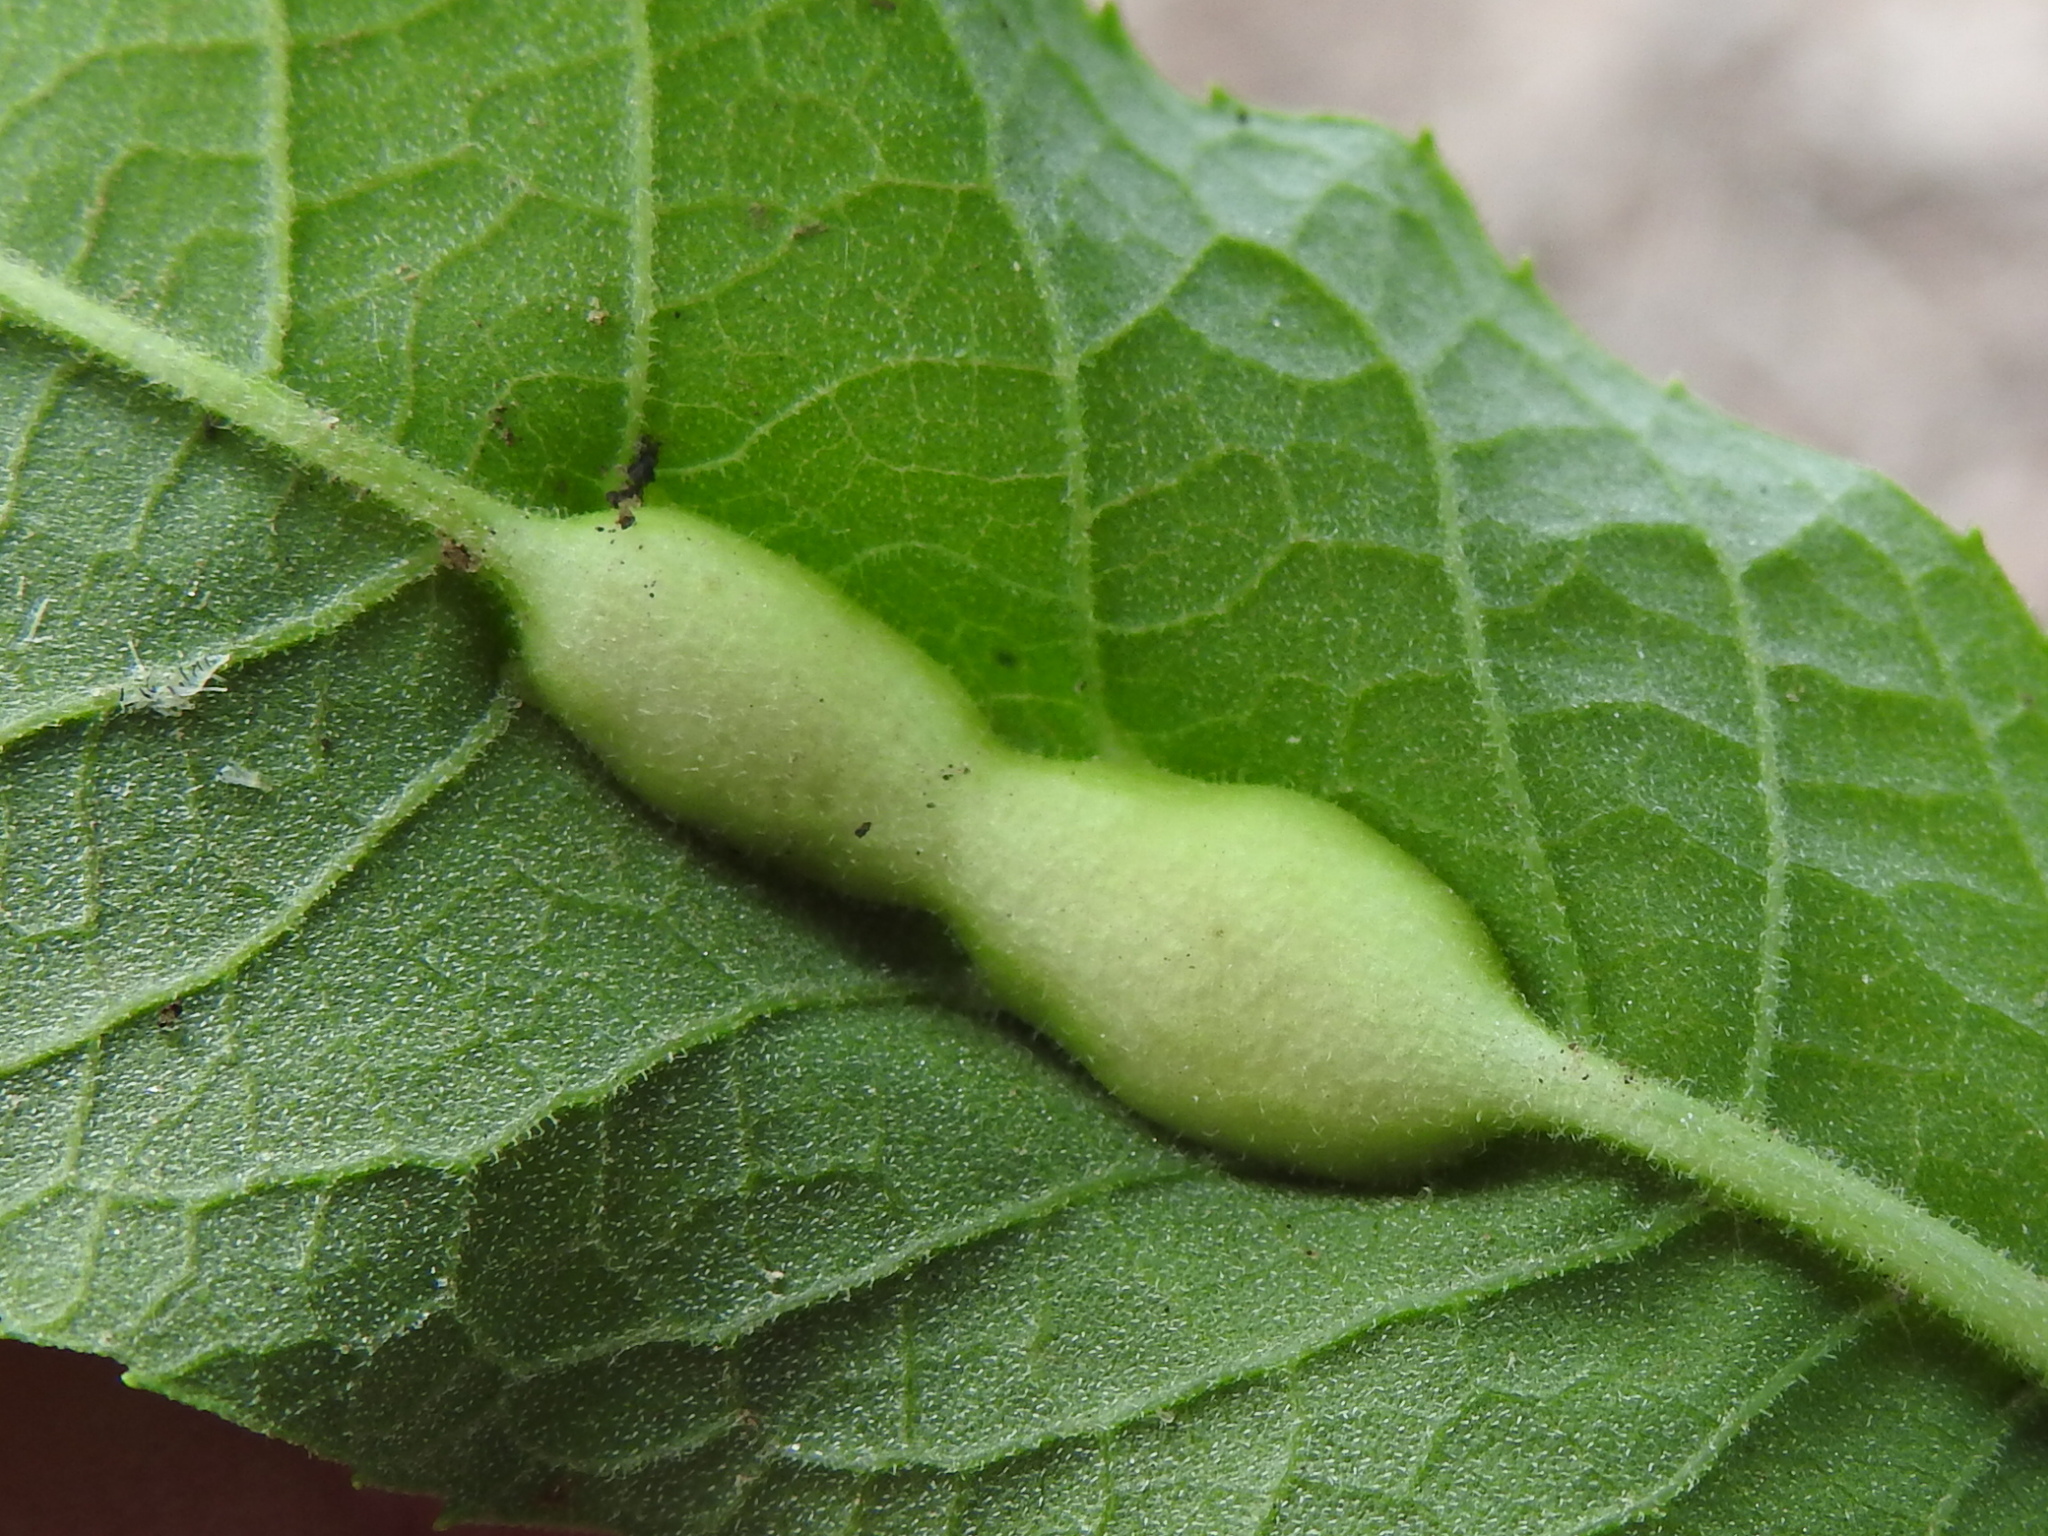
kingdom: Animalia
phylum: Arthropoda
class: Insecta
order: Diptera
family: Cecidomyiidae
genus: Neolasioptera
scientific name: Neolasioptera vernoniae
